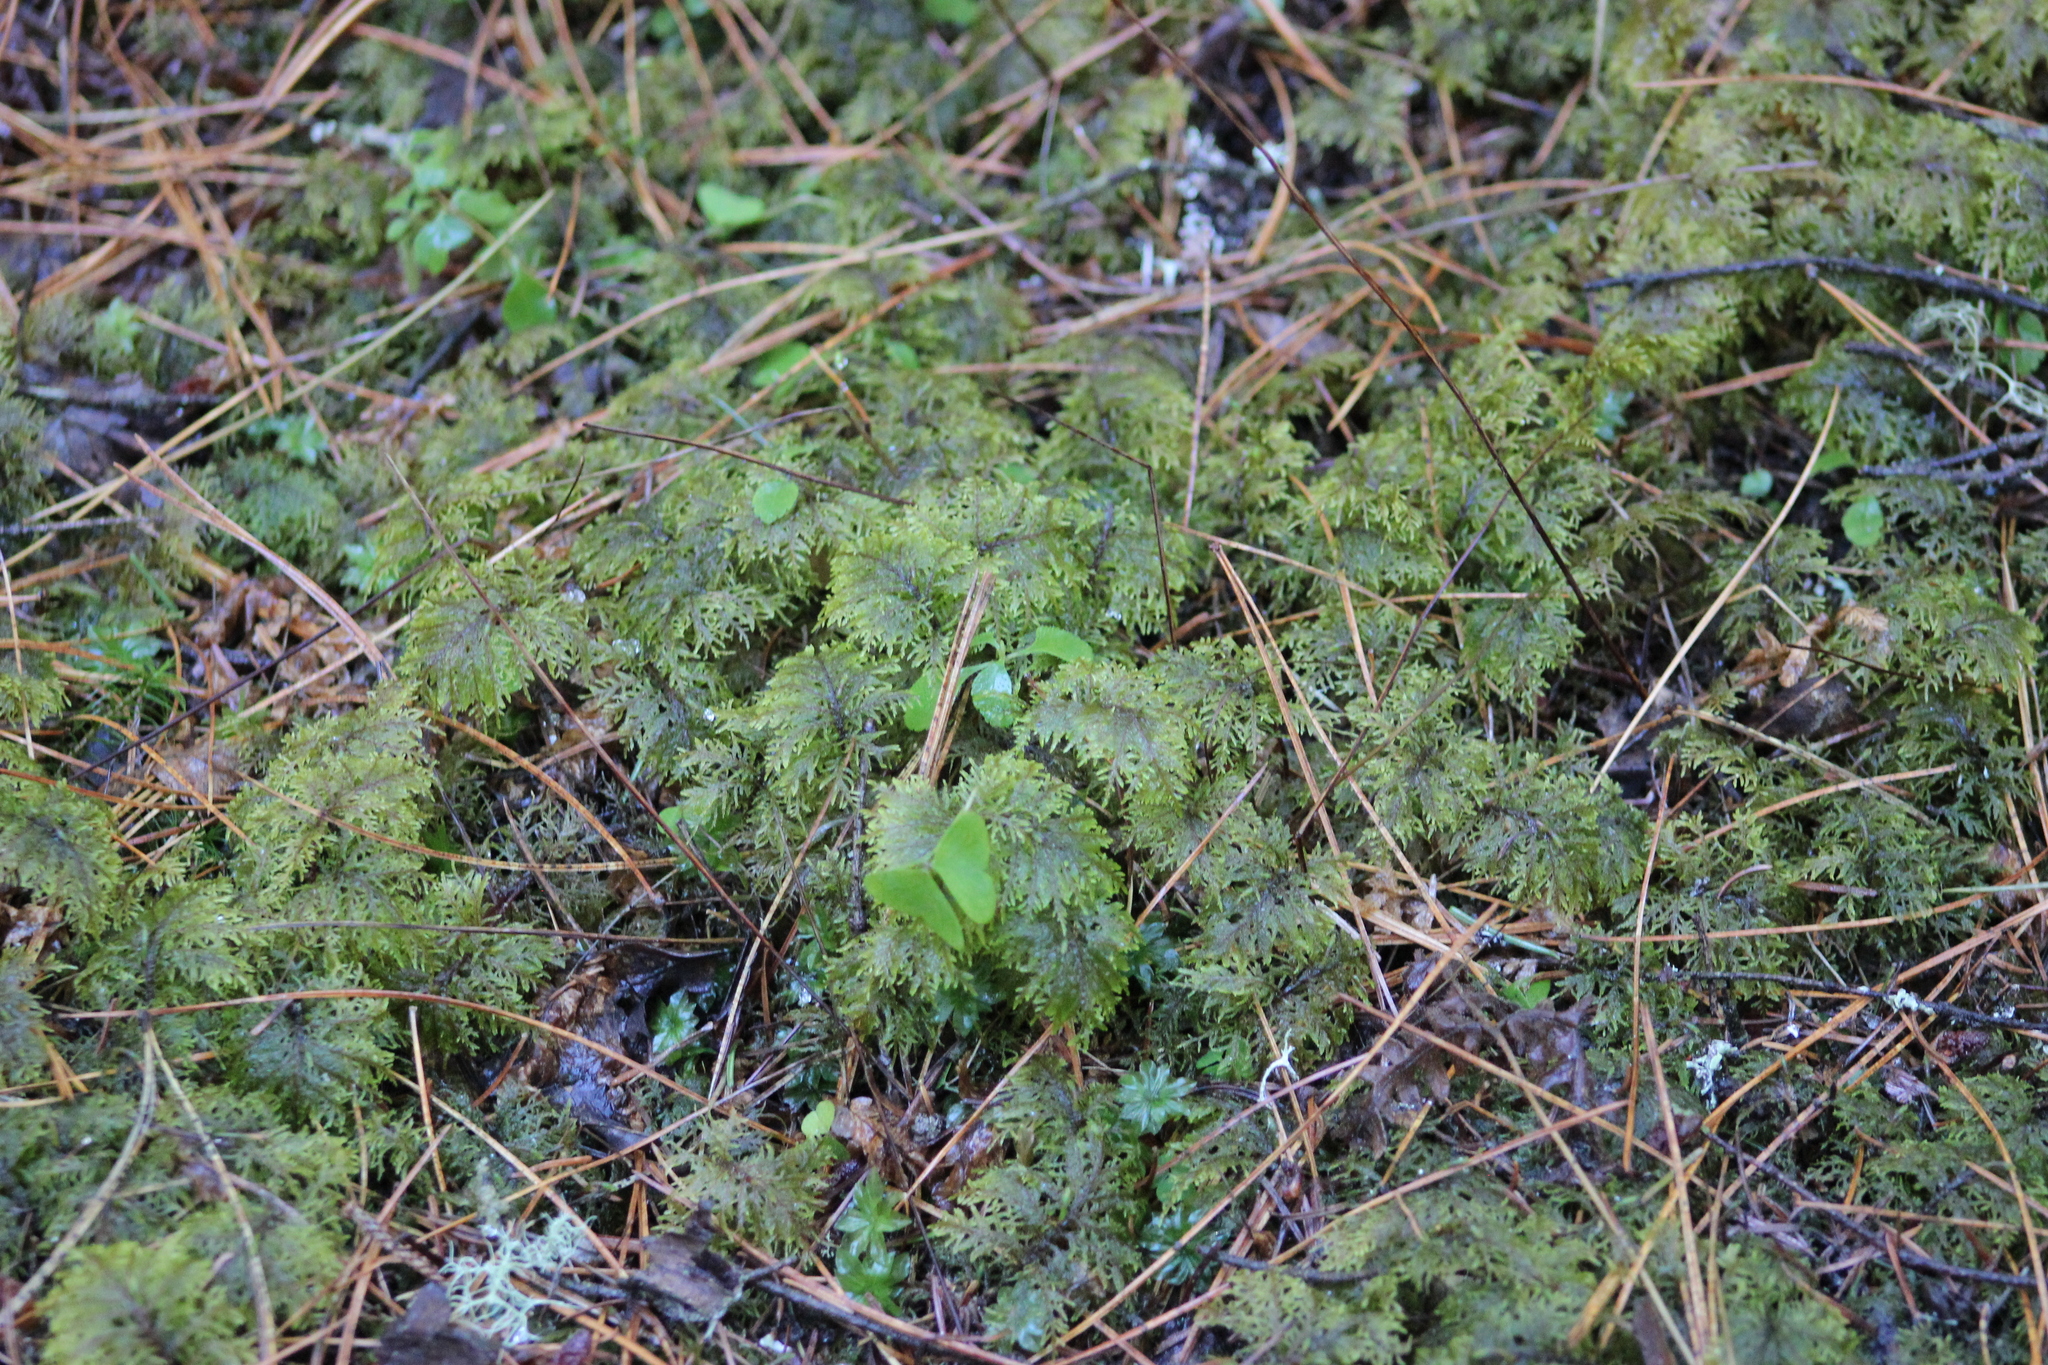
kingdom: Plantae
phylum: Bryophyta
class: Bryopsida
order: Hypnales
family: Hylocomiaceae
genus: Hylocomium
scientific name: Hylocomium splendens
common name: Stairstep moss
